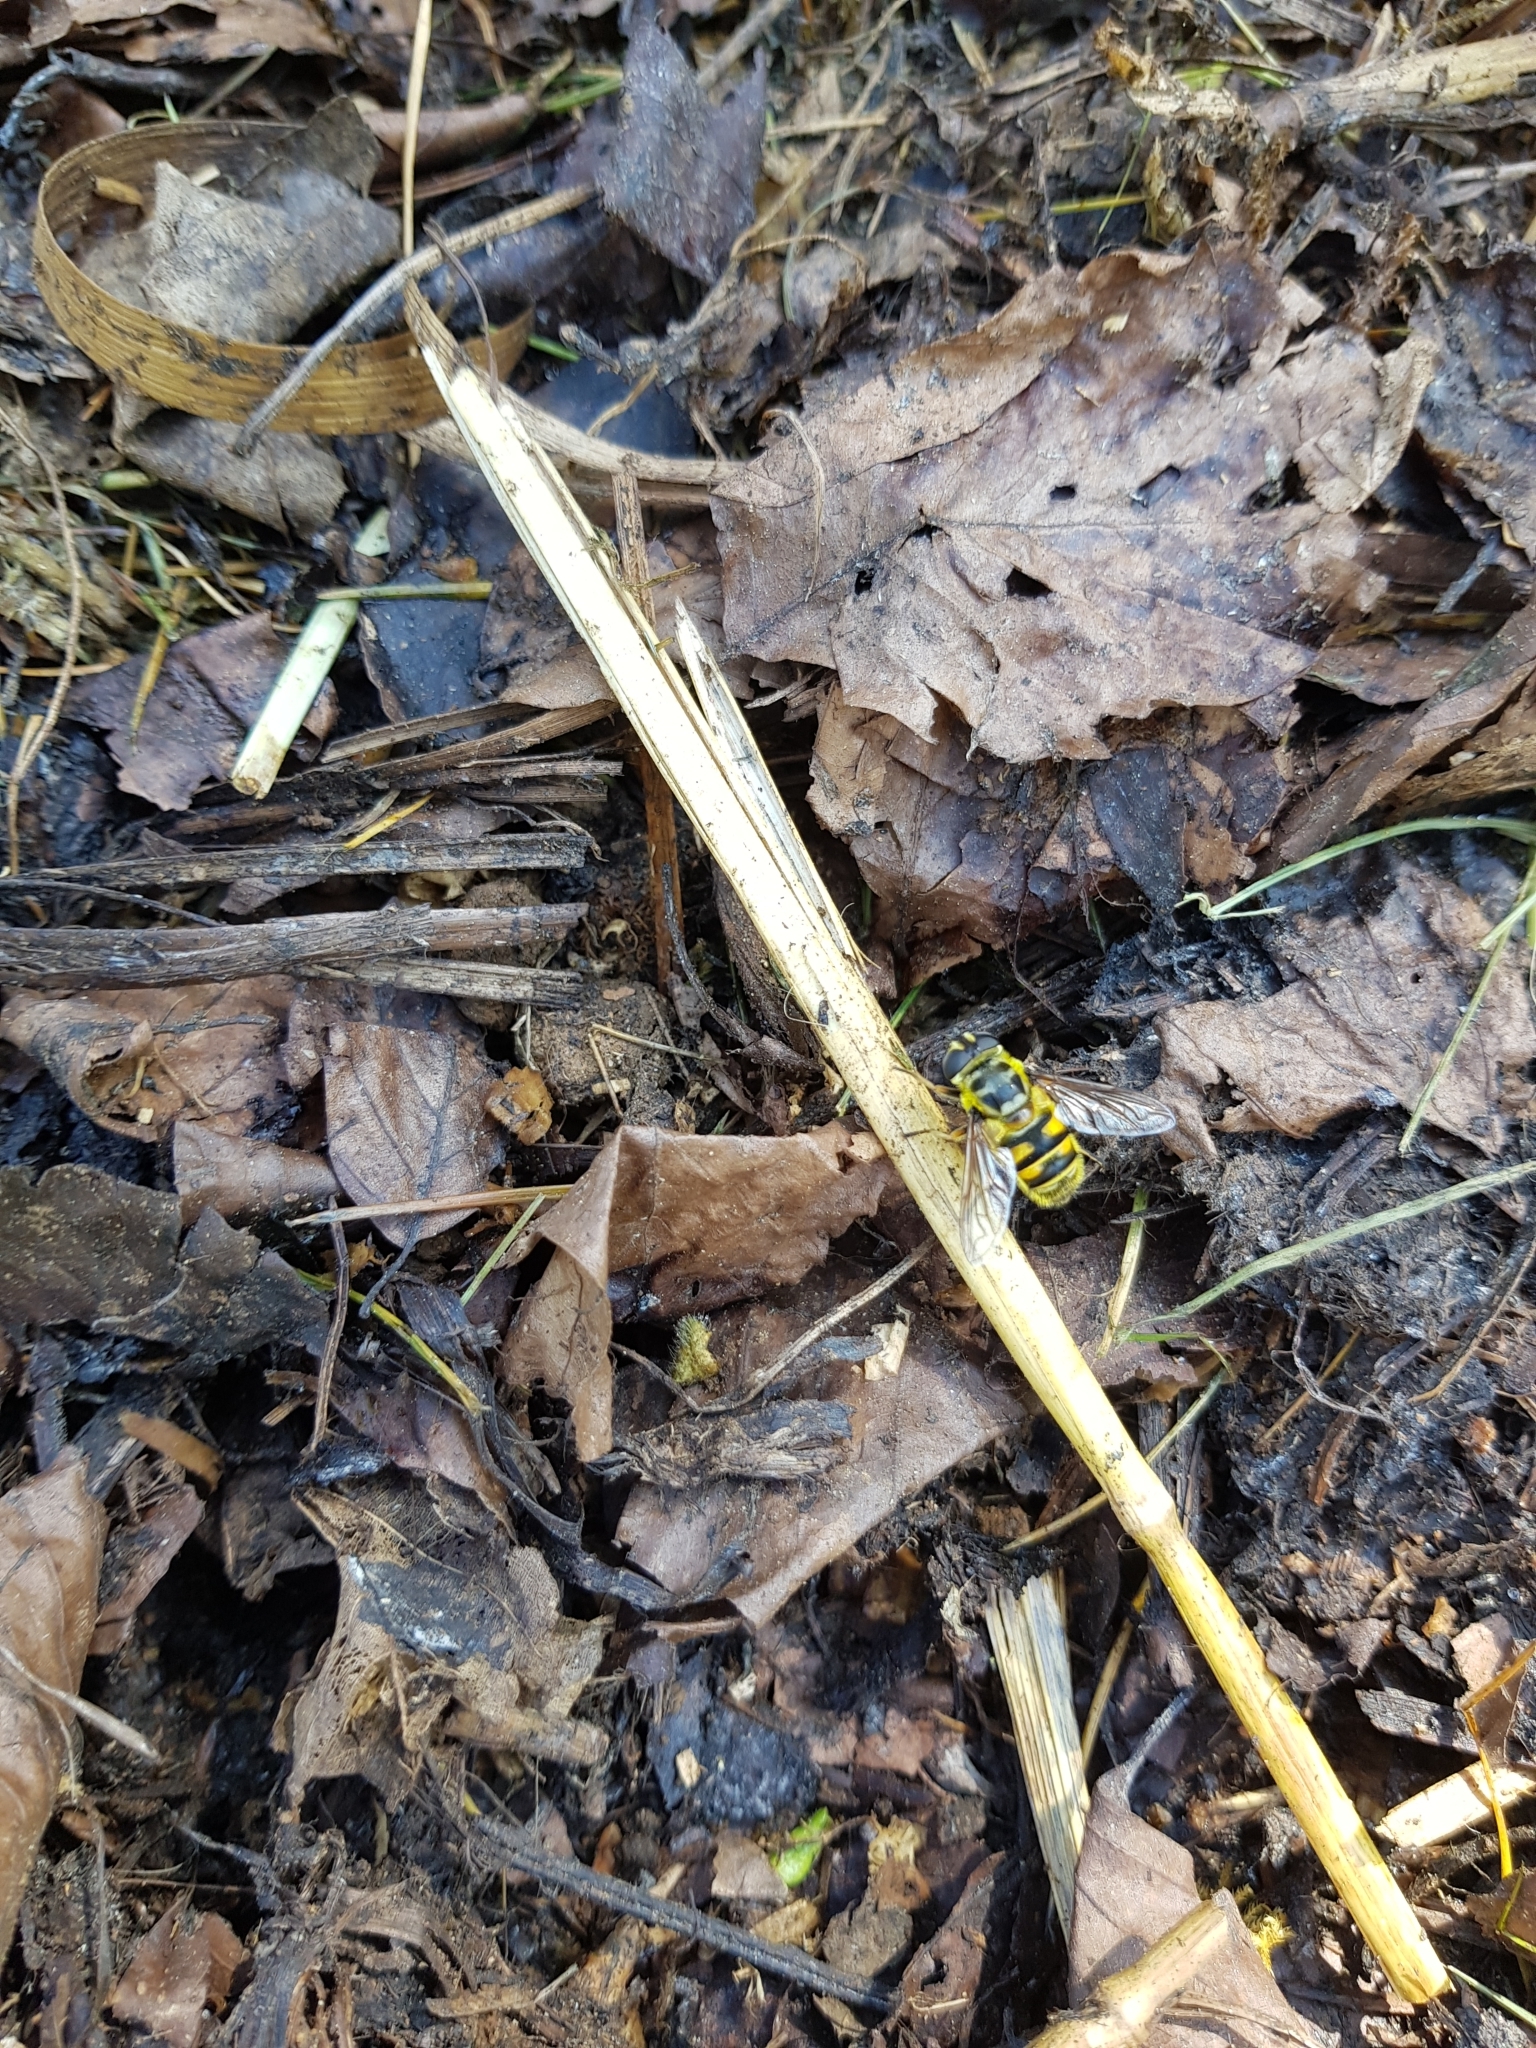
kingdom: Animalia
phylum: Arthropoda
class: Insecta
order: Diptera
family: Syrphidae
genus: Myathropa
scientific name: Myathropa florea
